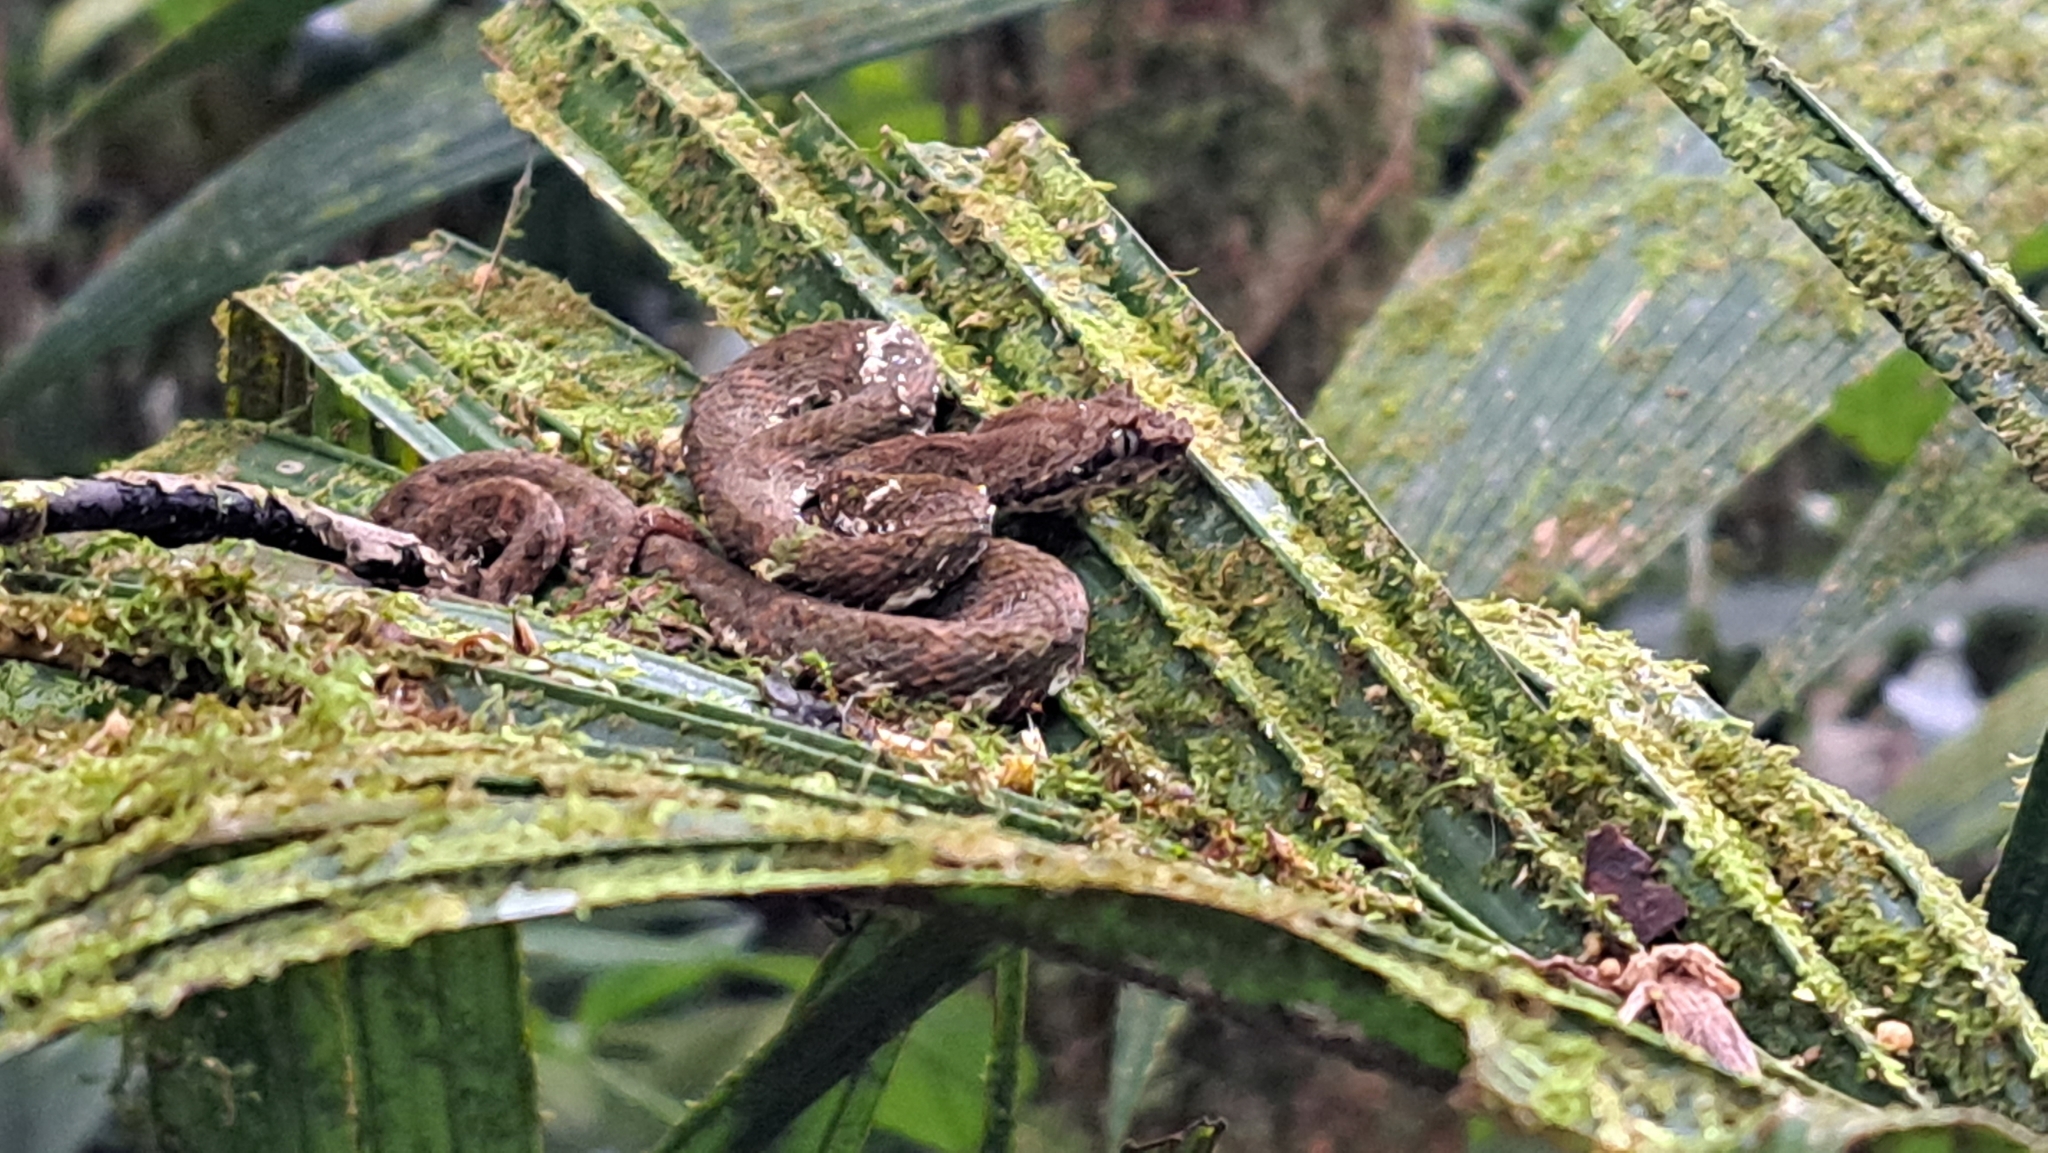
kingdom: Animalia
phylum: Chordata
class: Squamata
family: Viperidae
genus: Bothriechis
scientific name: Bothriechis schlegelii
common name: Eyelash viper
